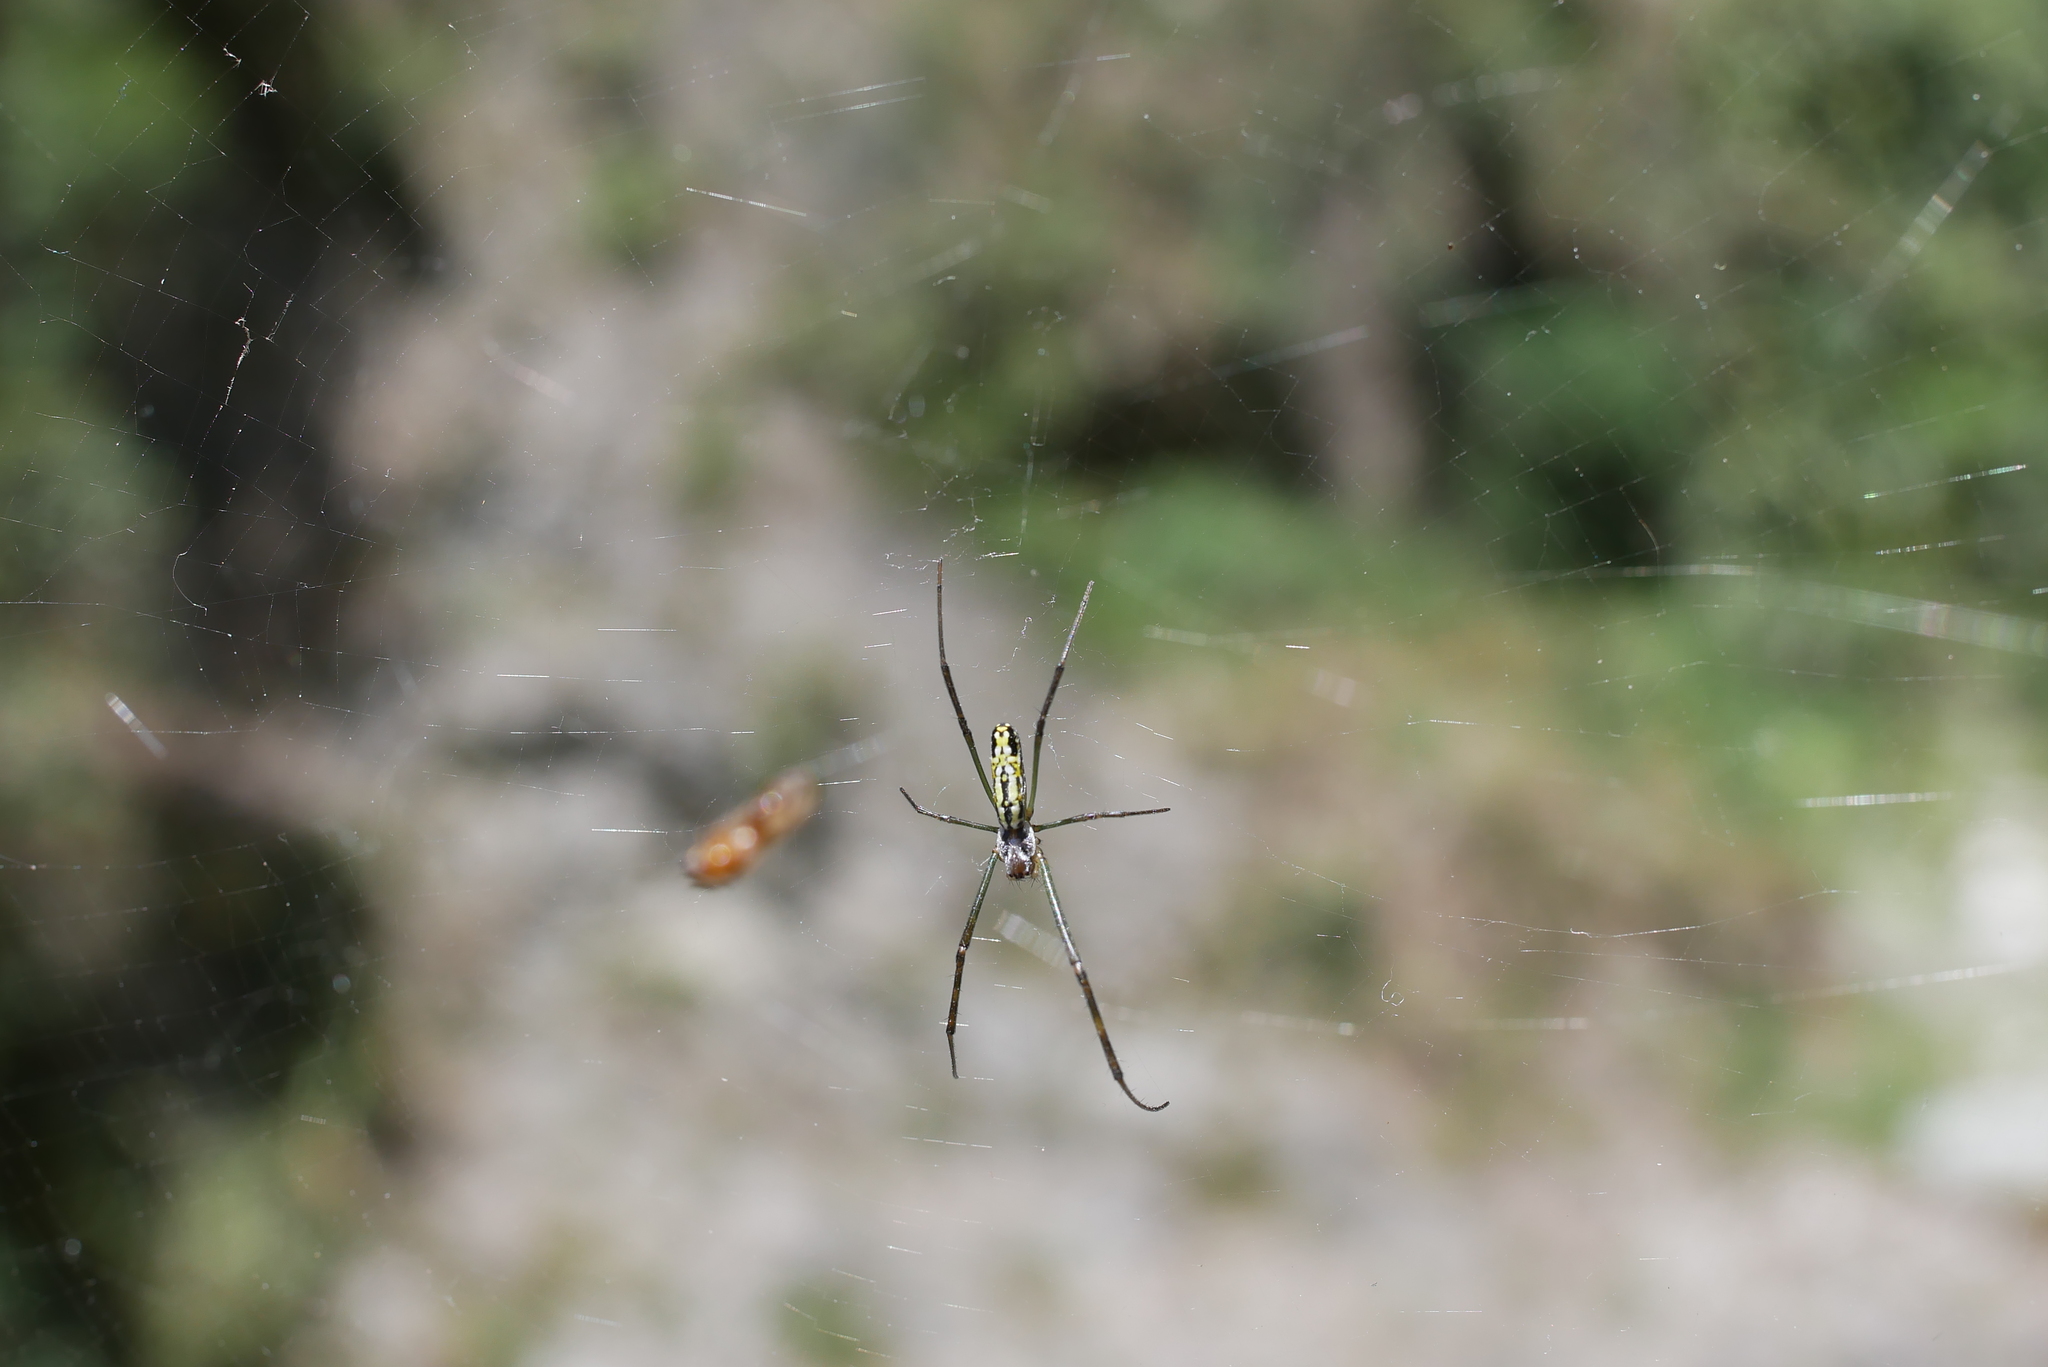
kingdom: Animalia
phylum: Arthropoda
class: Arachnida
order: Araneae
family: Araneidae
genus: Trichonephila
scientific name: Trichonephila clavata
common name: Jorō spider
